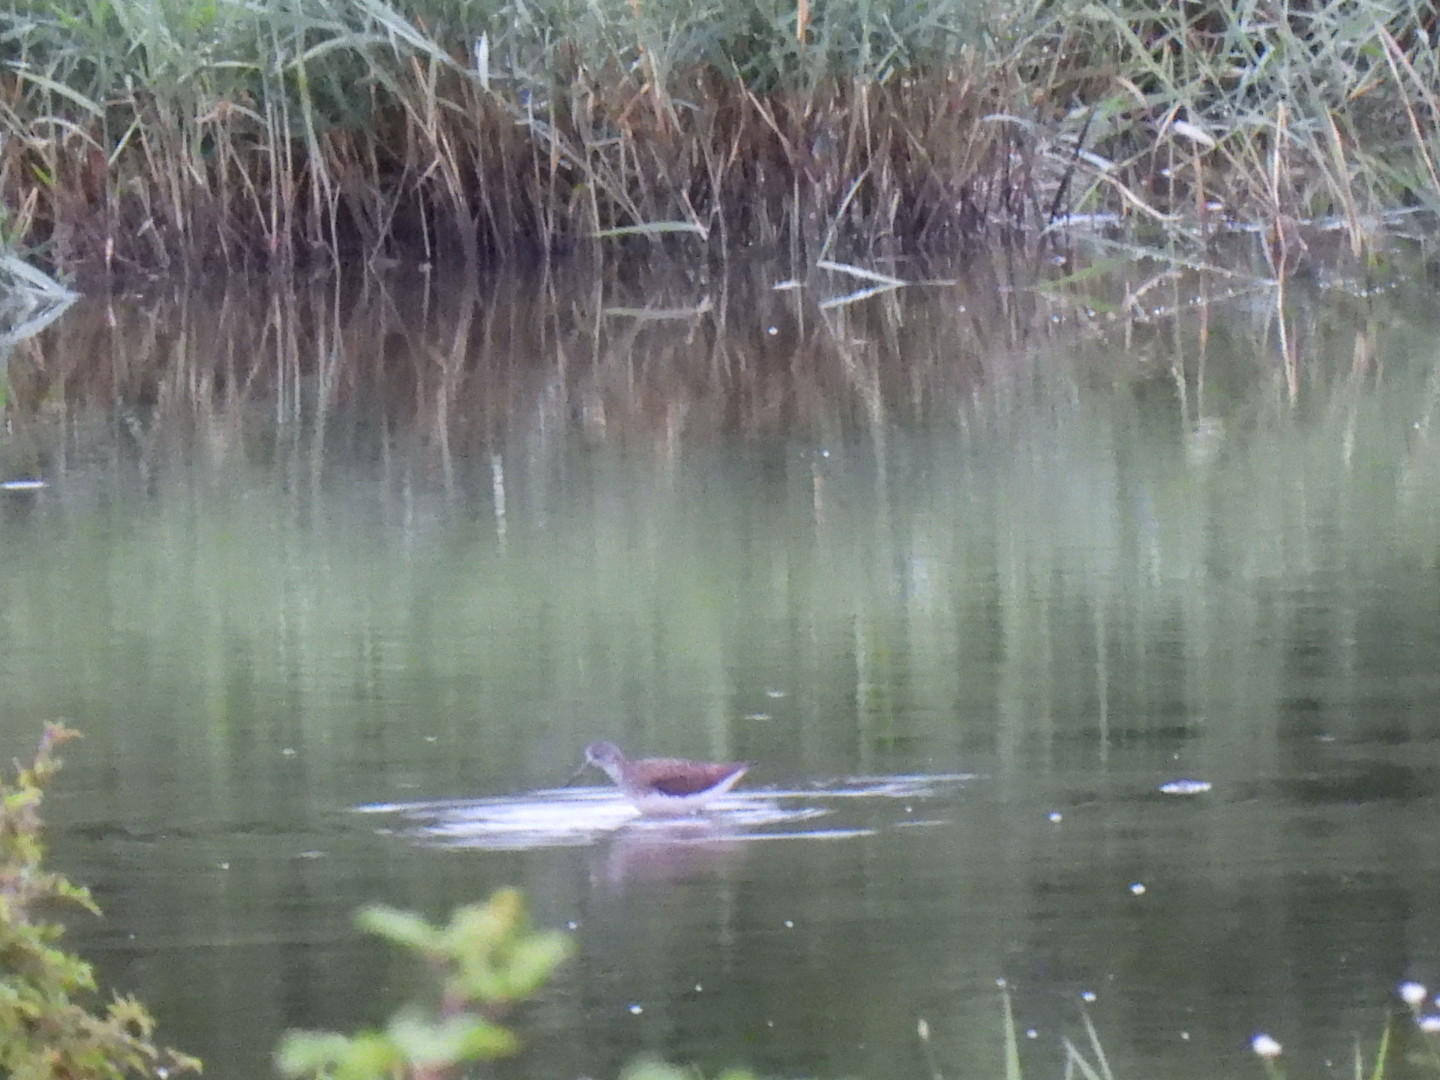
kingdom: Animalia
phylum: Chordata
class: Aves
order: Charadriiformes
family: Scolopacidae
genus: Tringa
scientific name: Tringa ochropus
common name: Green sandpiper
